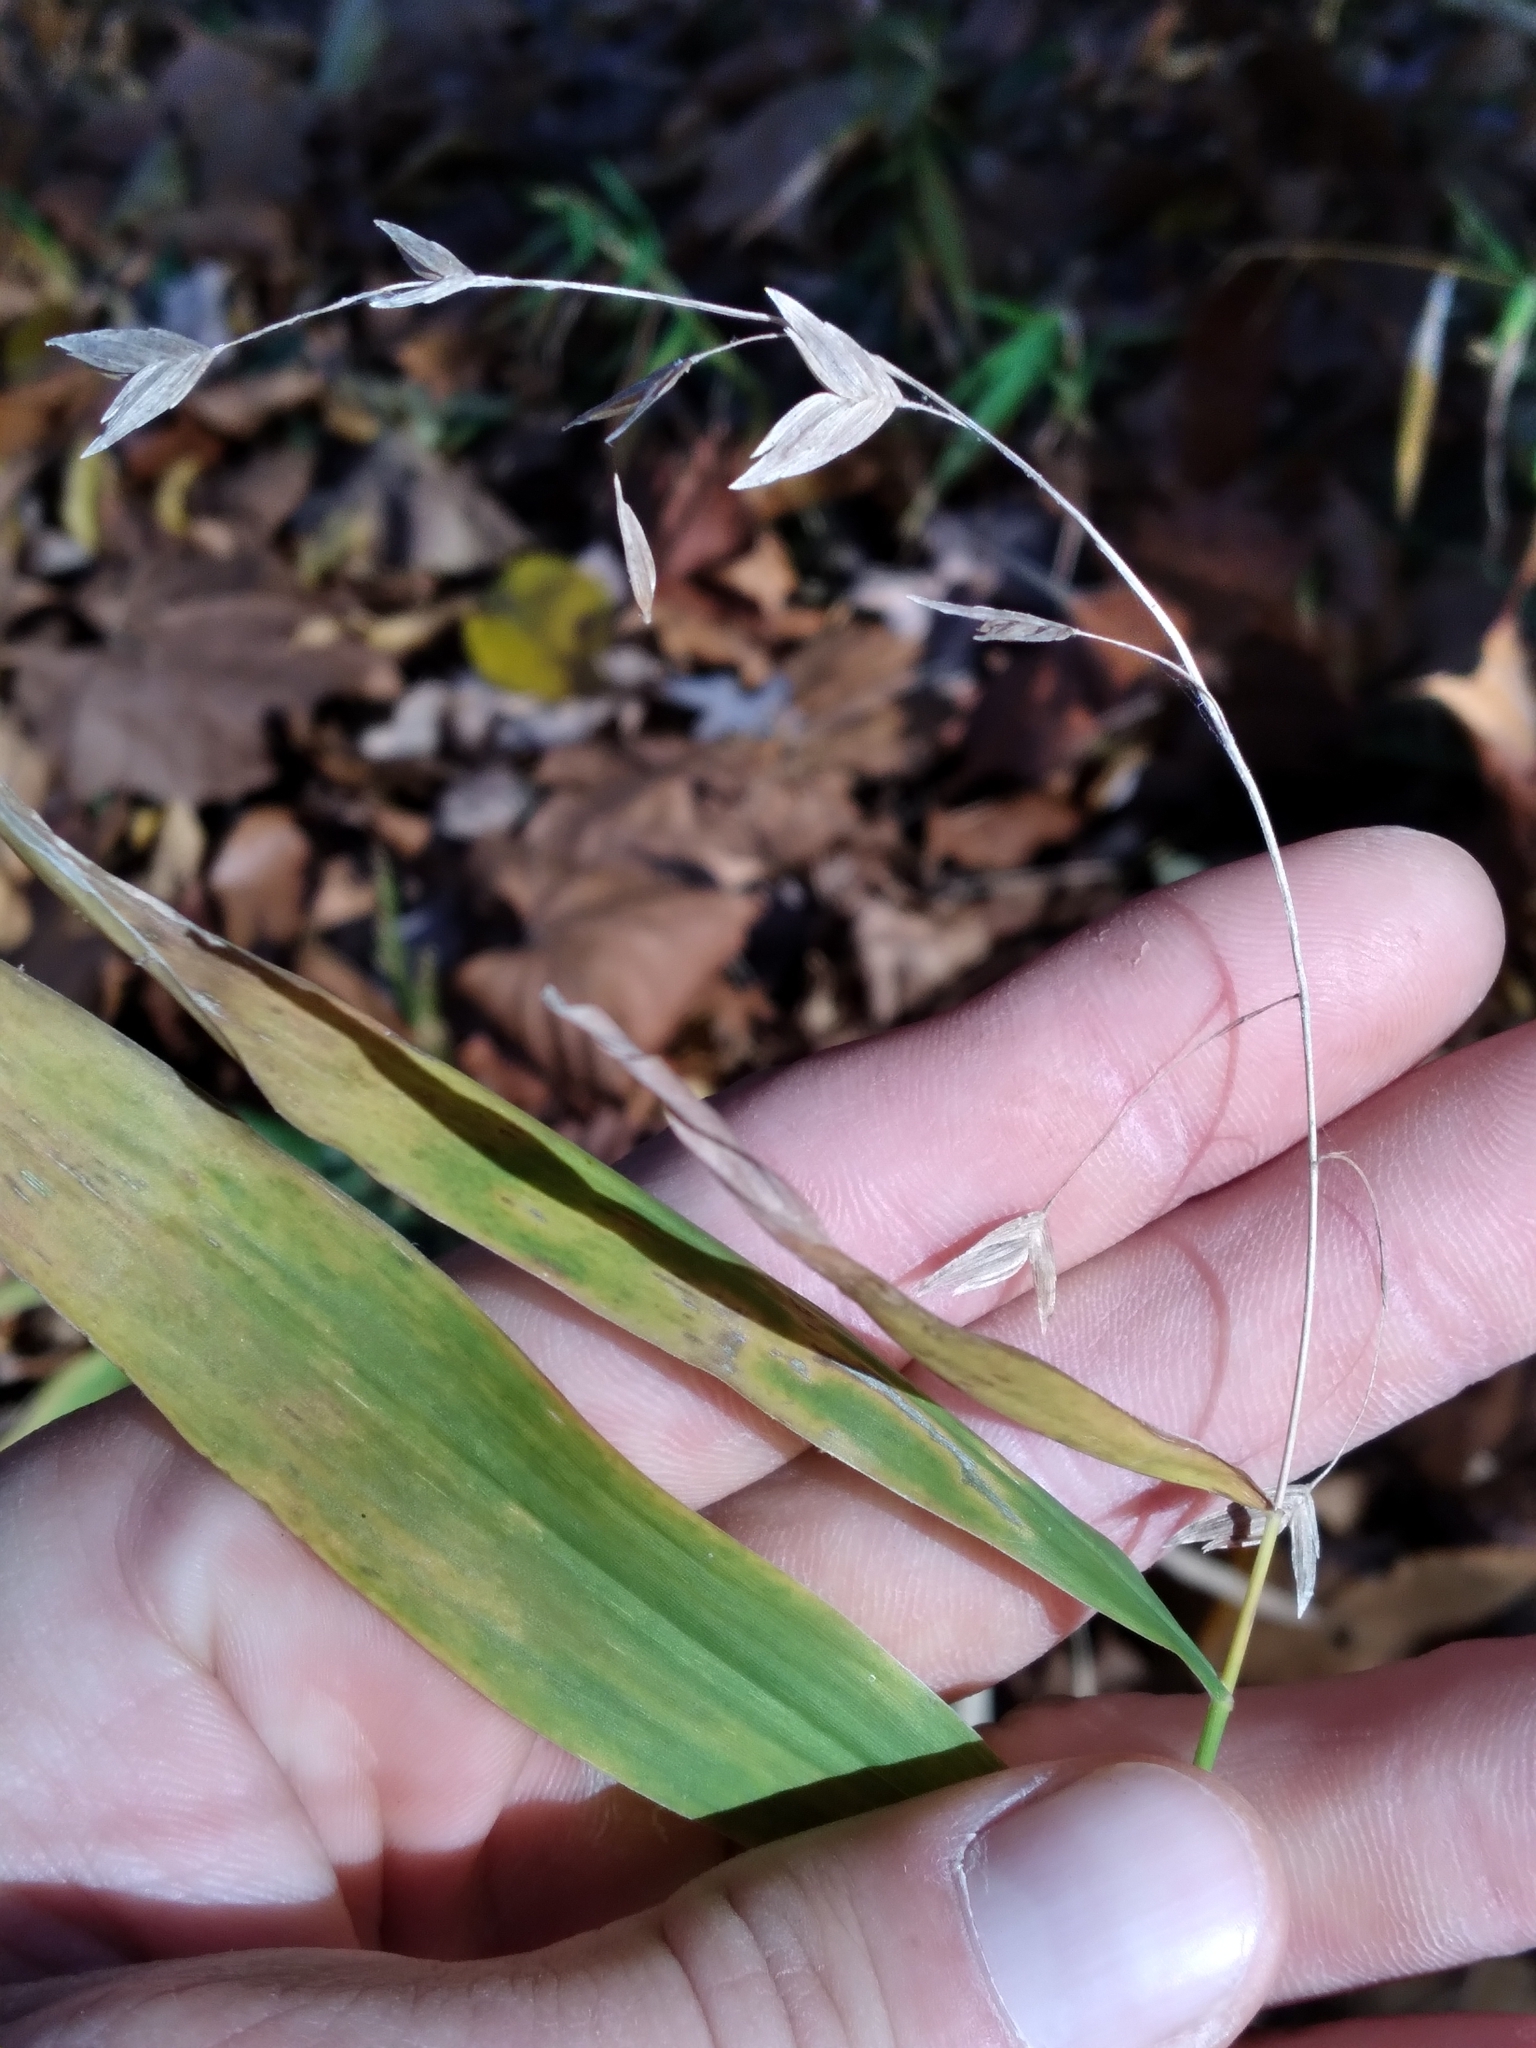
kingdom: Plantae
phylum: Tracheophyta
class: Liliopsida
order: Poales
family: Poaceae
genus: Chasmanthium
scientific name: Chasmanthium latifolium
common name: Broad-leaved chasmanthium
